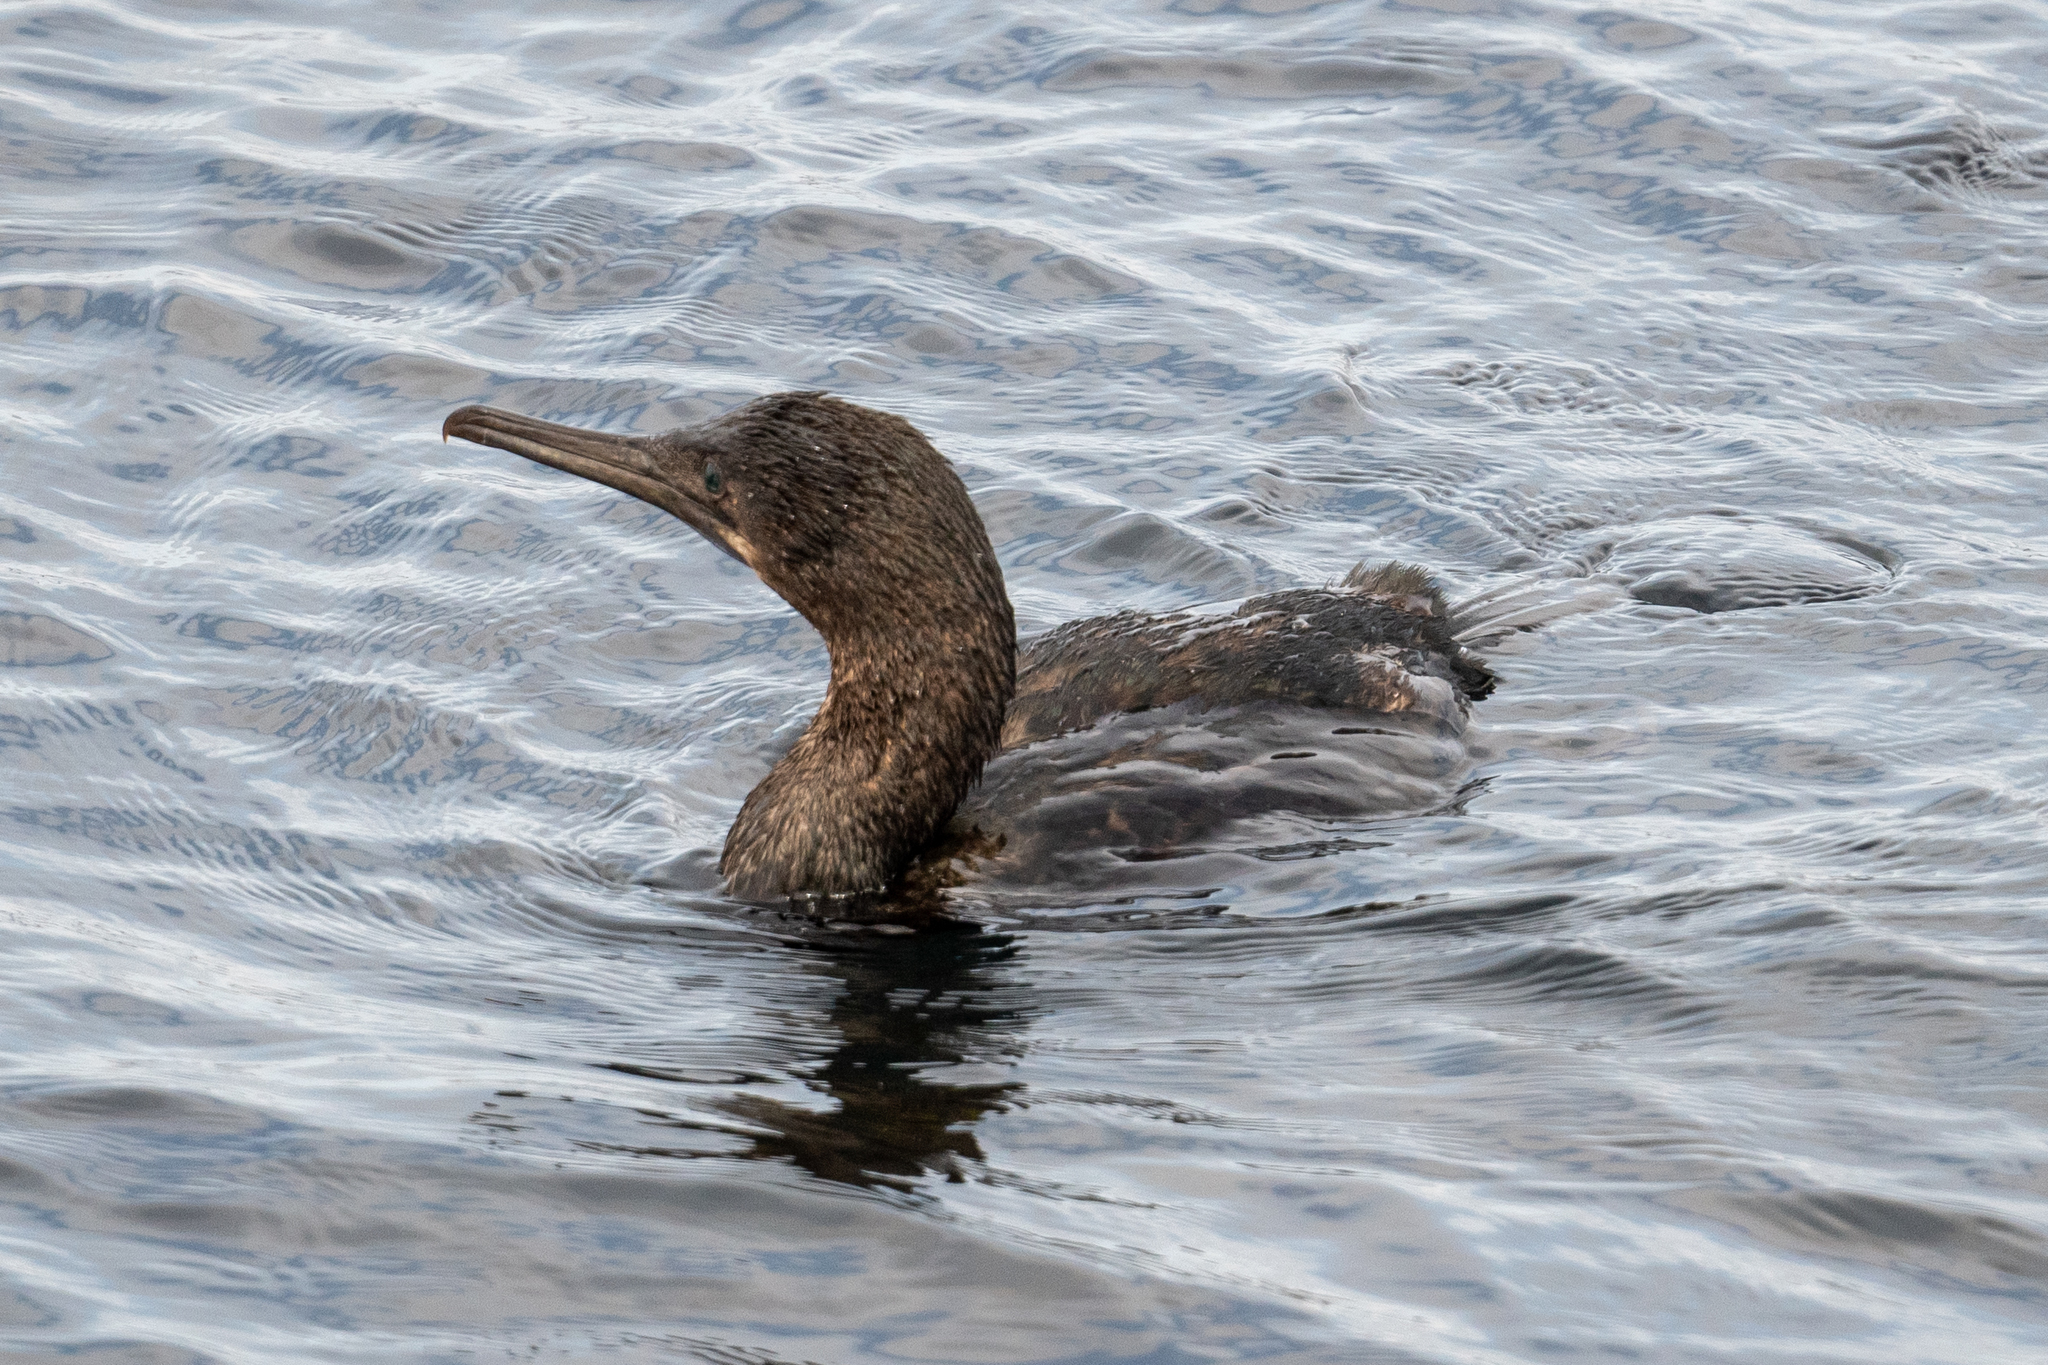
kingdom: Animalia
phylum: Chordata
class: Aves
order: Suliformes
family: Phalacrocoracidae
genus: Urile
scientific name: Urile penicillatus
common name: Brandt's cormorant
